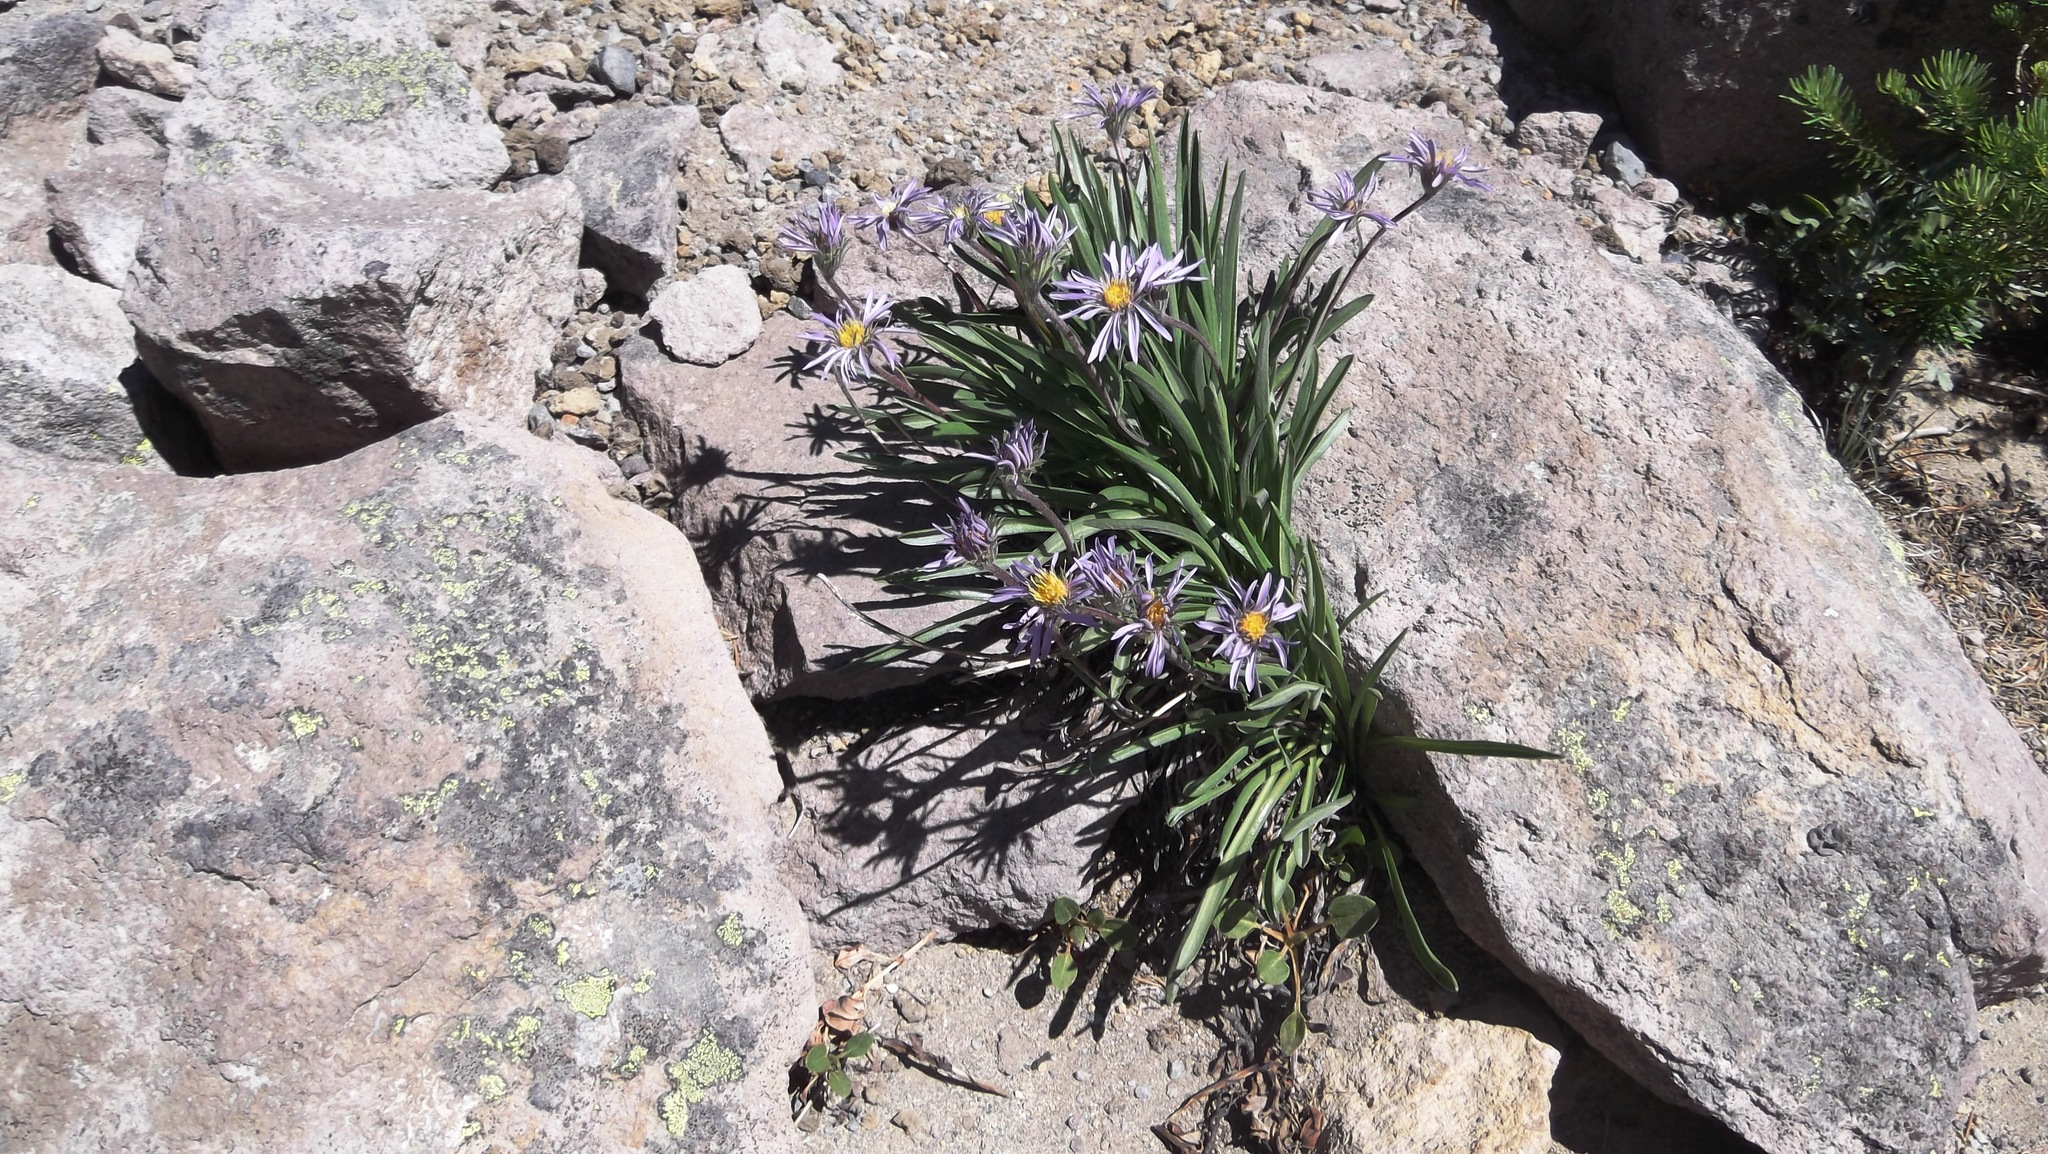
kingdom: Plantae
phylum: Tracheophyta
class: Magnoliopsida
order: Asterales
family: Asteraceae
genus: Oreostemma
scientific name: Oreostemma alpigenum
